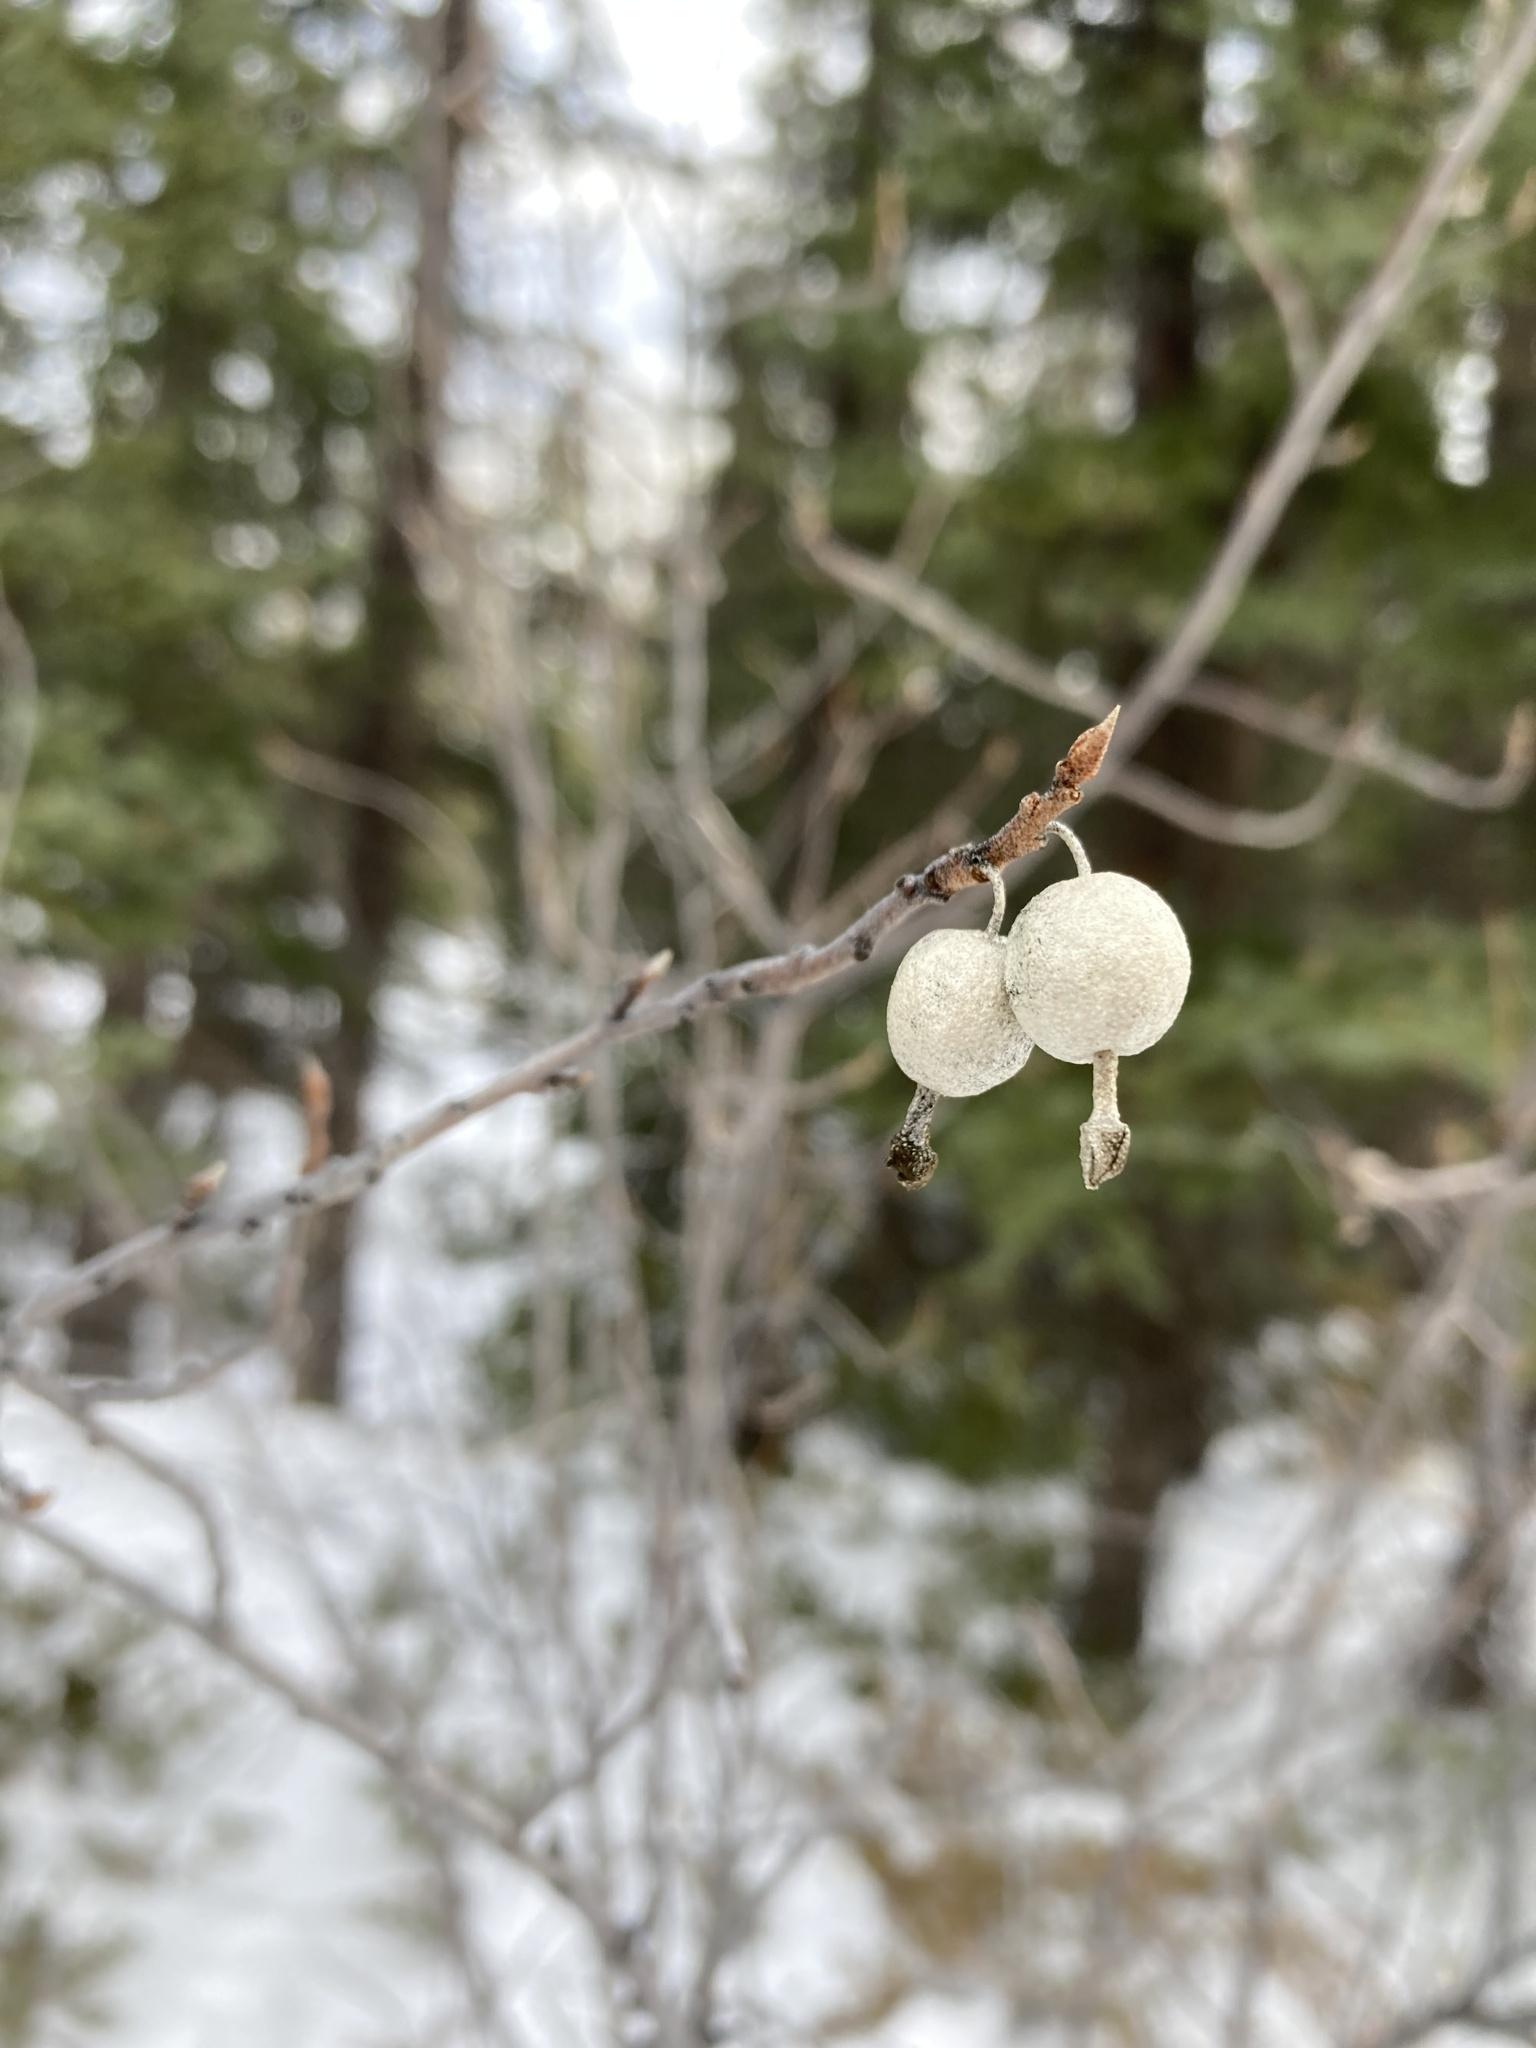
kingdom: Plantae
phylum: Tracheophyta
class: Magnoliopsida
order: Rosales
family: Elaeagnaceae
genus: Elaeagnus
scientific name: Elaeagnus commutata
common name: Silverberry
